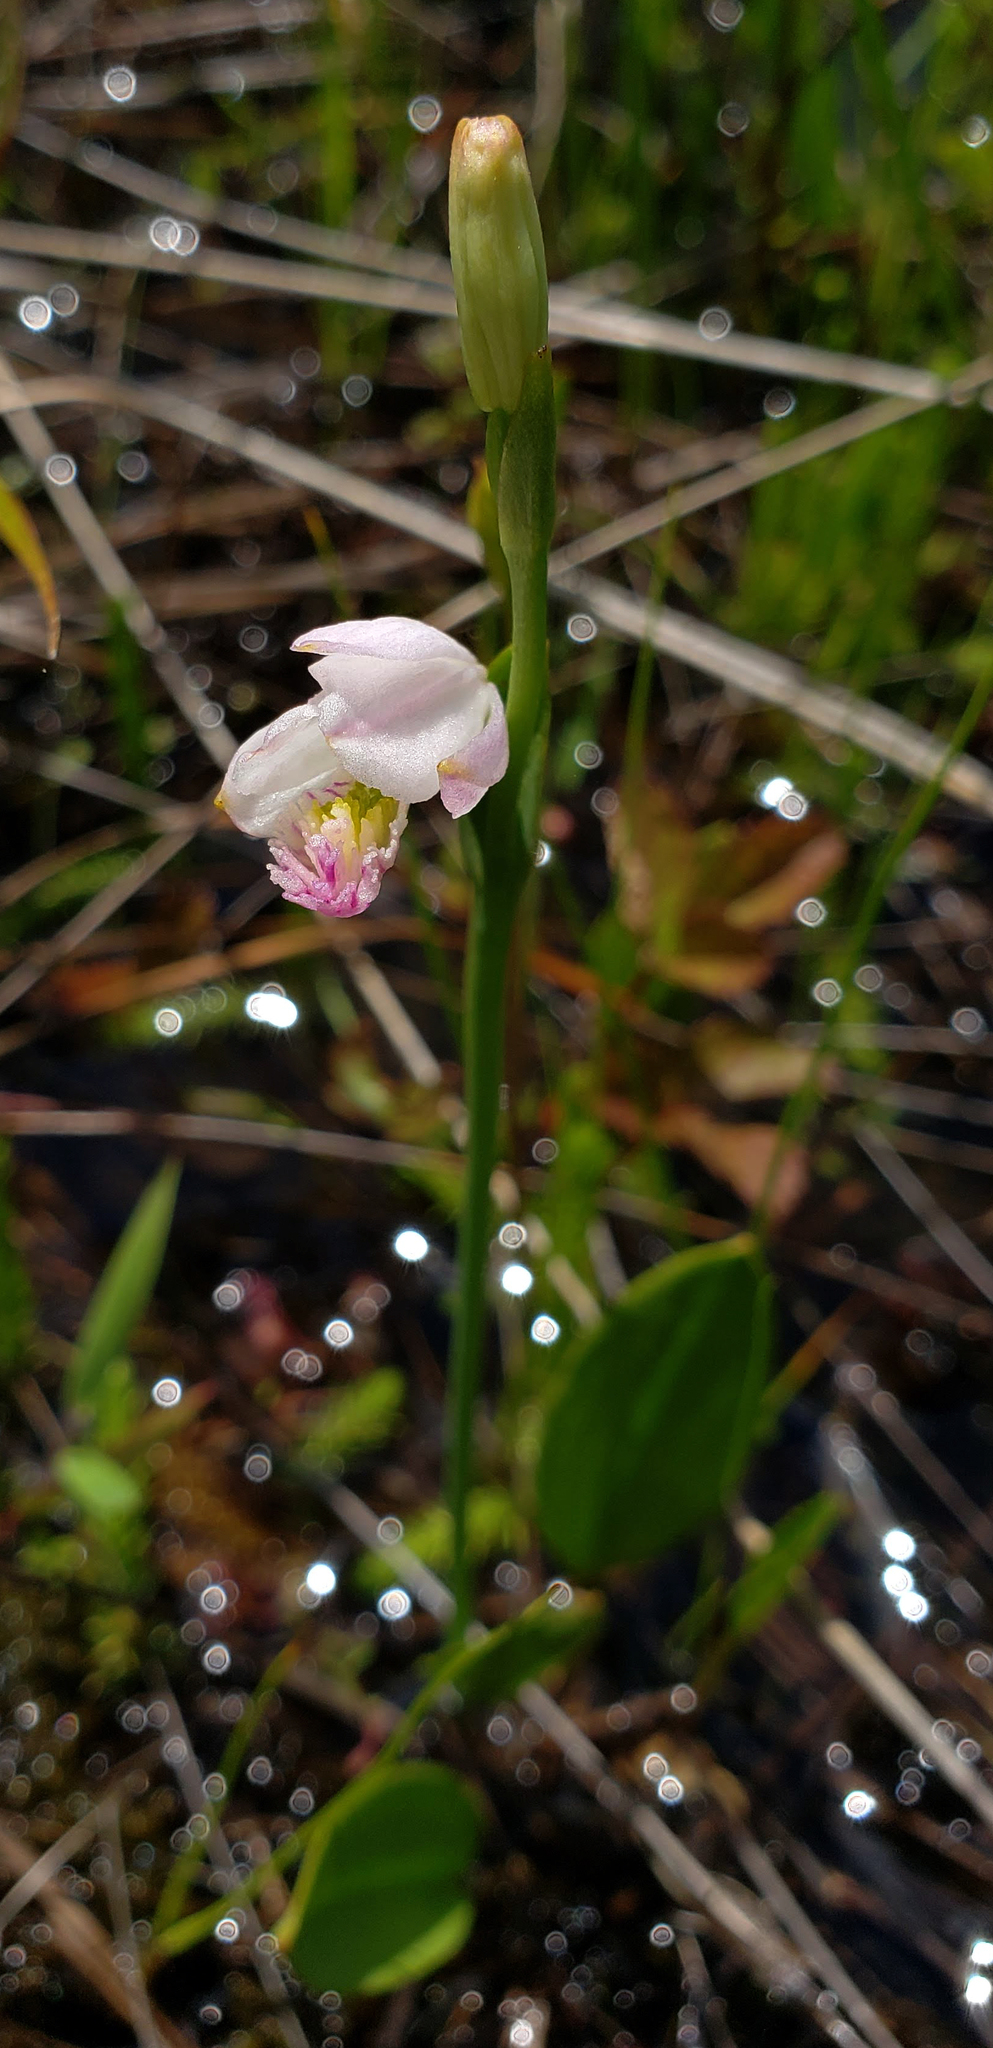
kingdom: Plantae
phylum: Tracheophyta
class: Liliopsida
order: Asparagales
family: Orchidaceae
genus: Pogonia
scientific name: Pogonia ophioglossoides
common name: Rose pogonia
